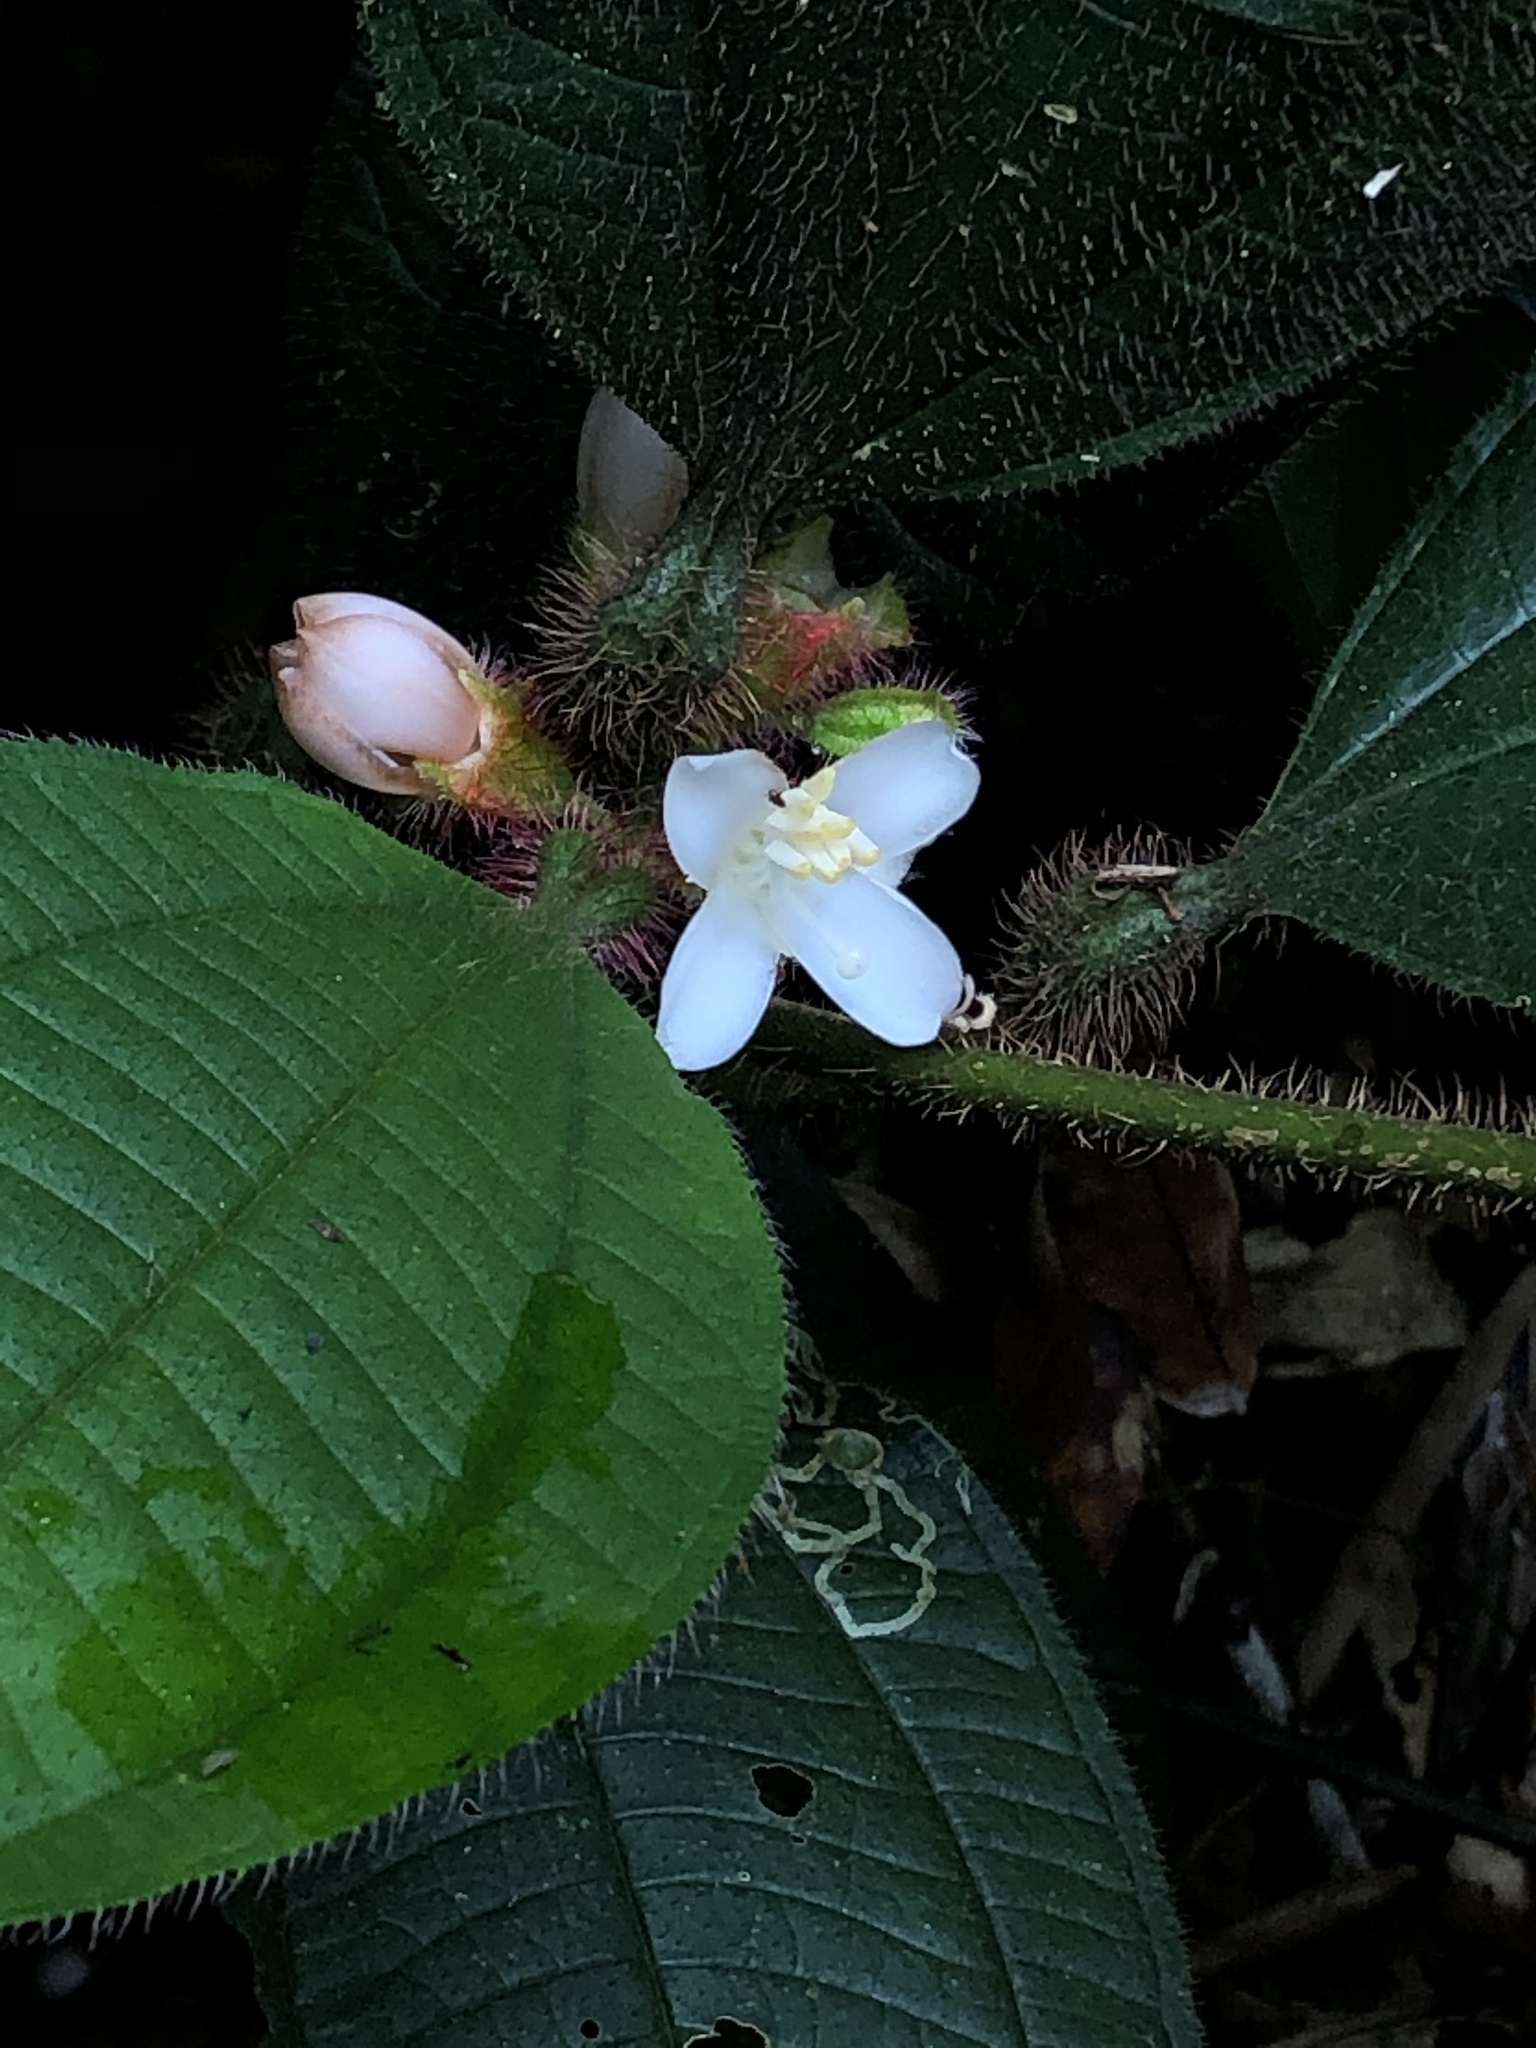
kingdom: Plantae
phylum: Tracheophyta
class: Magnoliopsida
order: Myrtales
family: Melastomataceae
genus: Miconia
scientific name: Miconia microphysca
